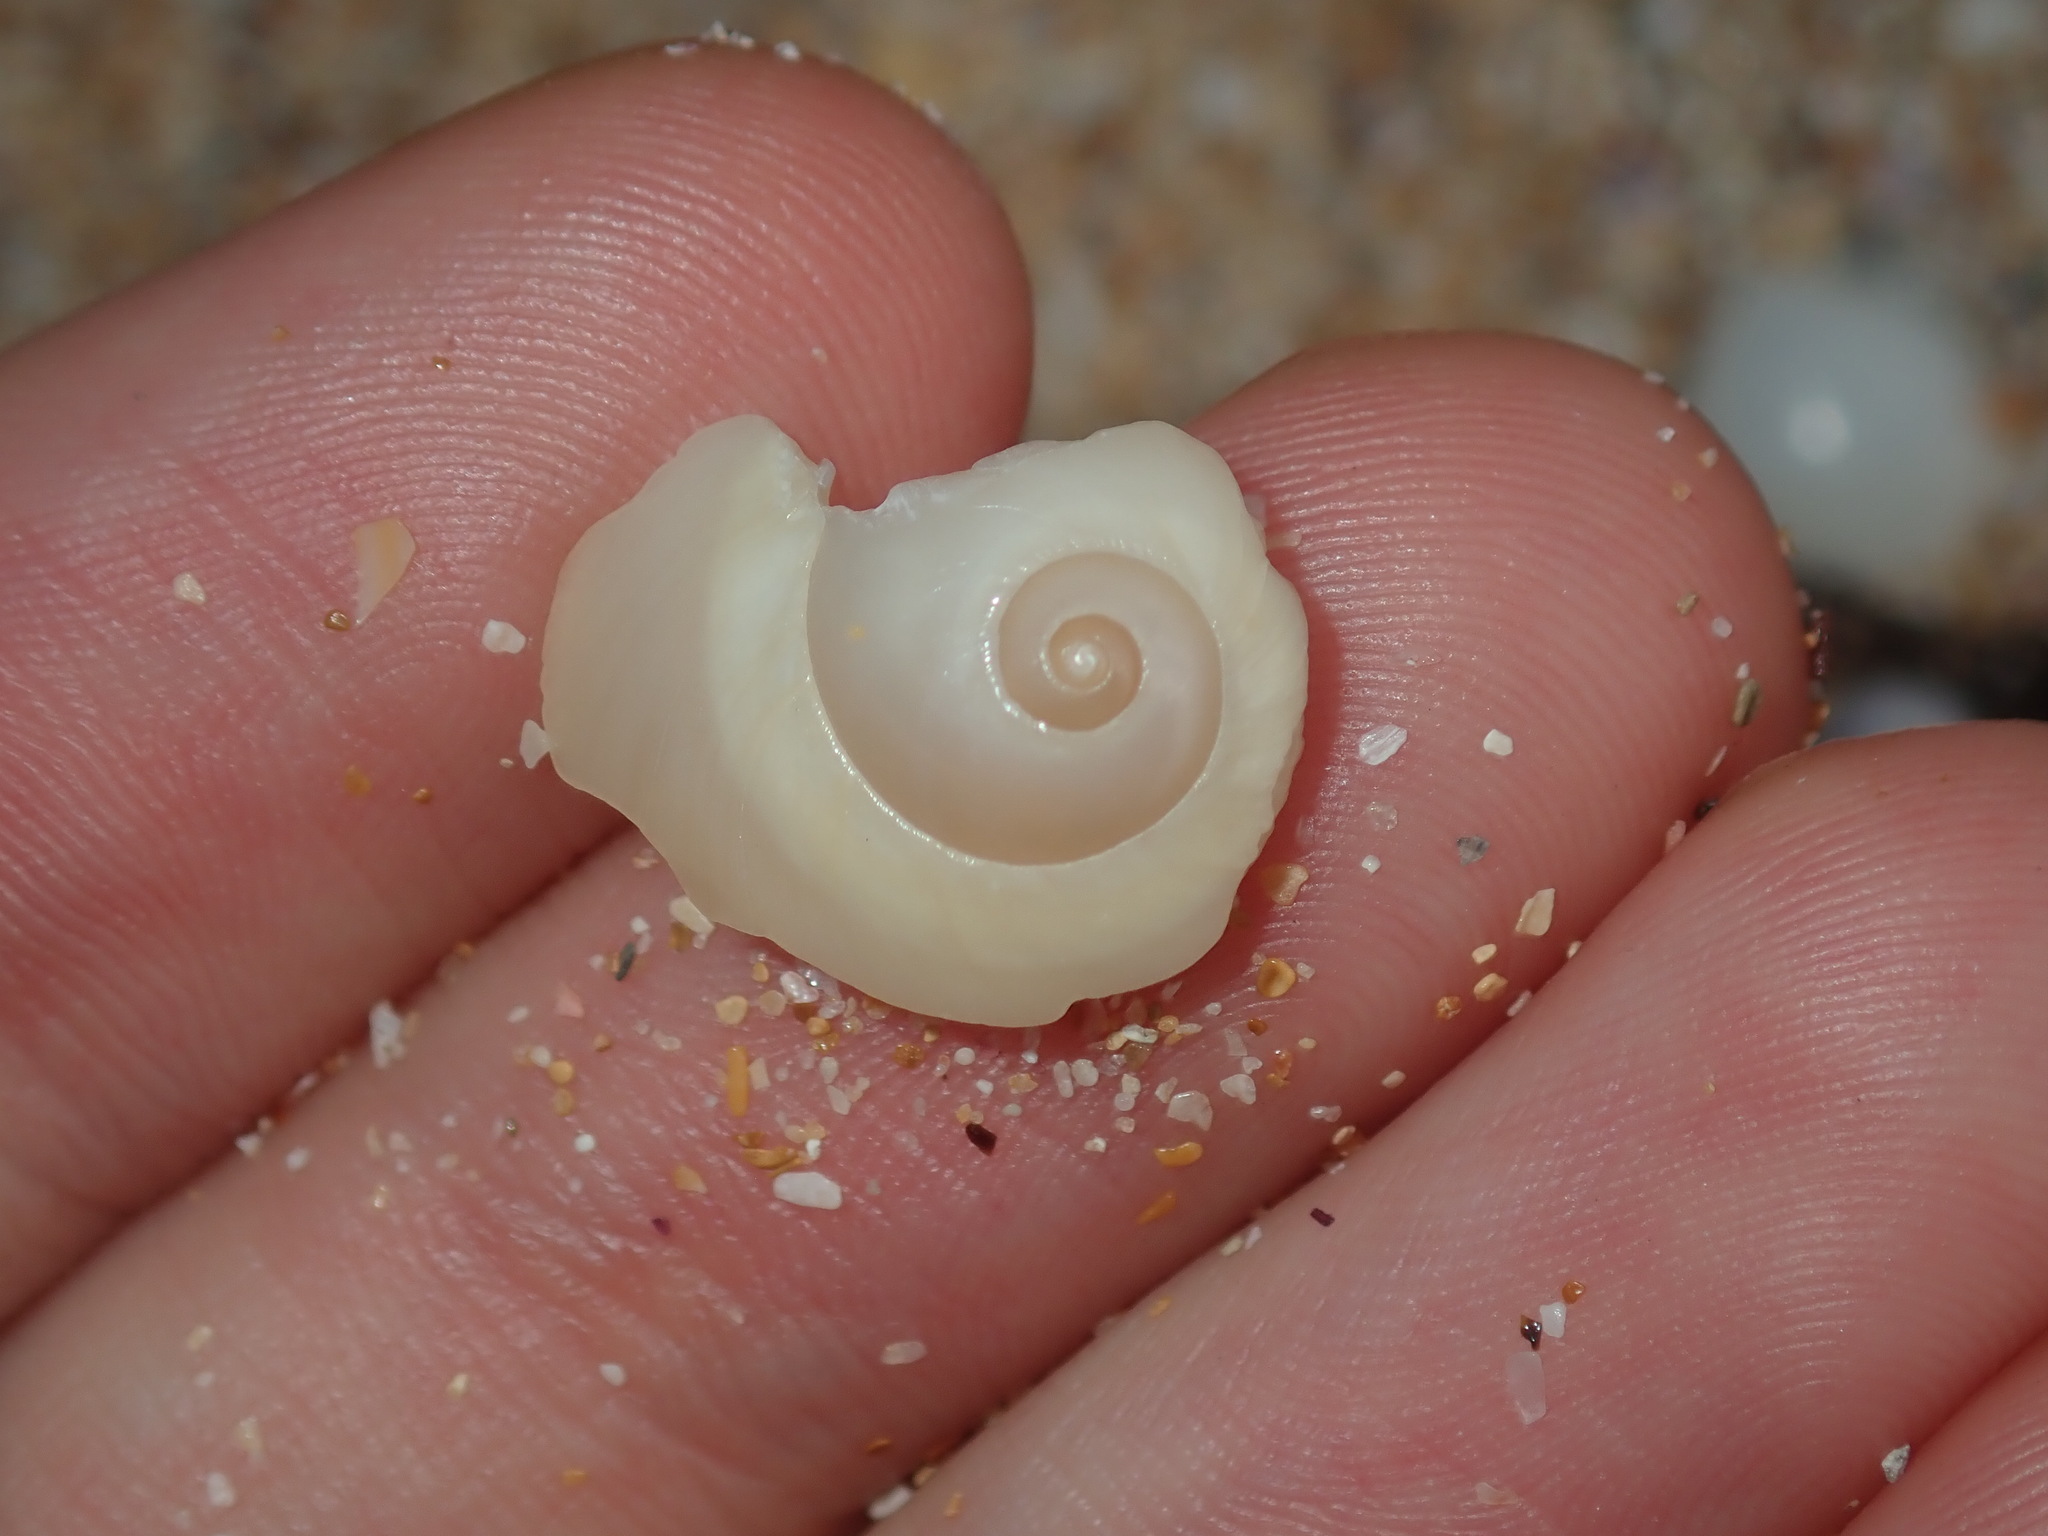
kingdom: Animalia
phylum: Mollusca
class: Gastropoda
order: Littorinimorpha
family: Naticidae
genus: Neverita
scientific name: Neverita didyma
